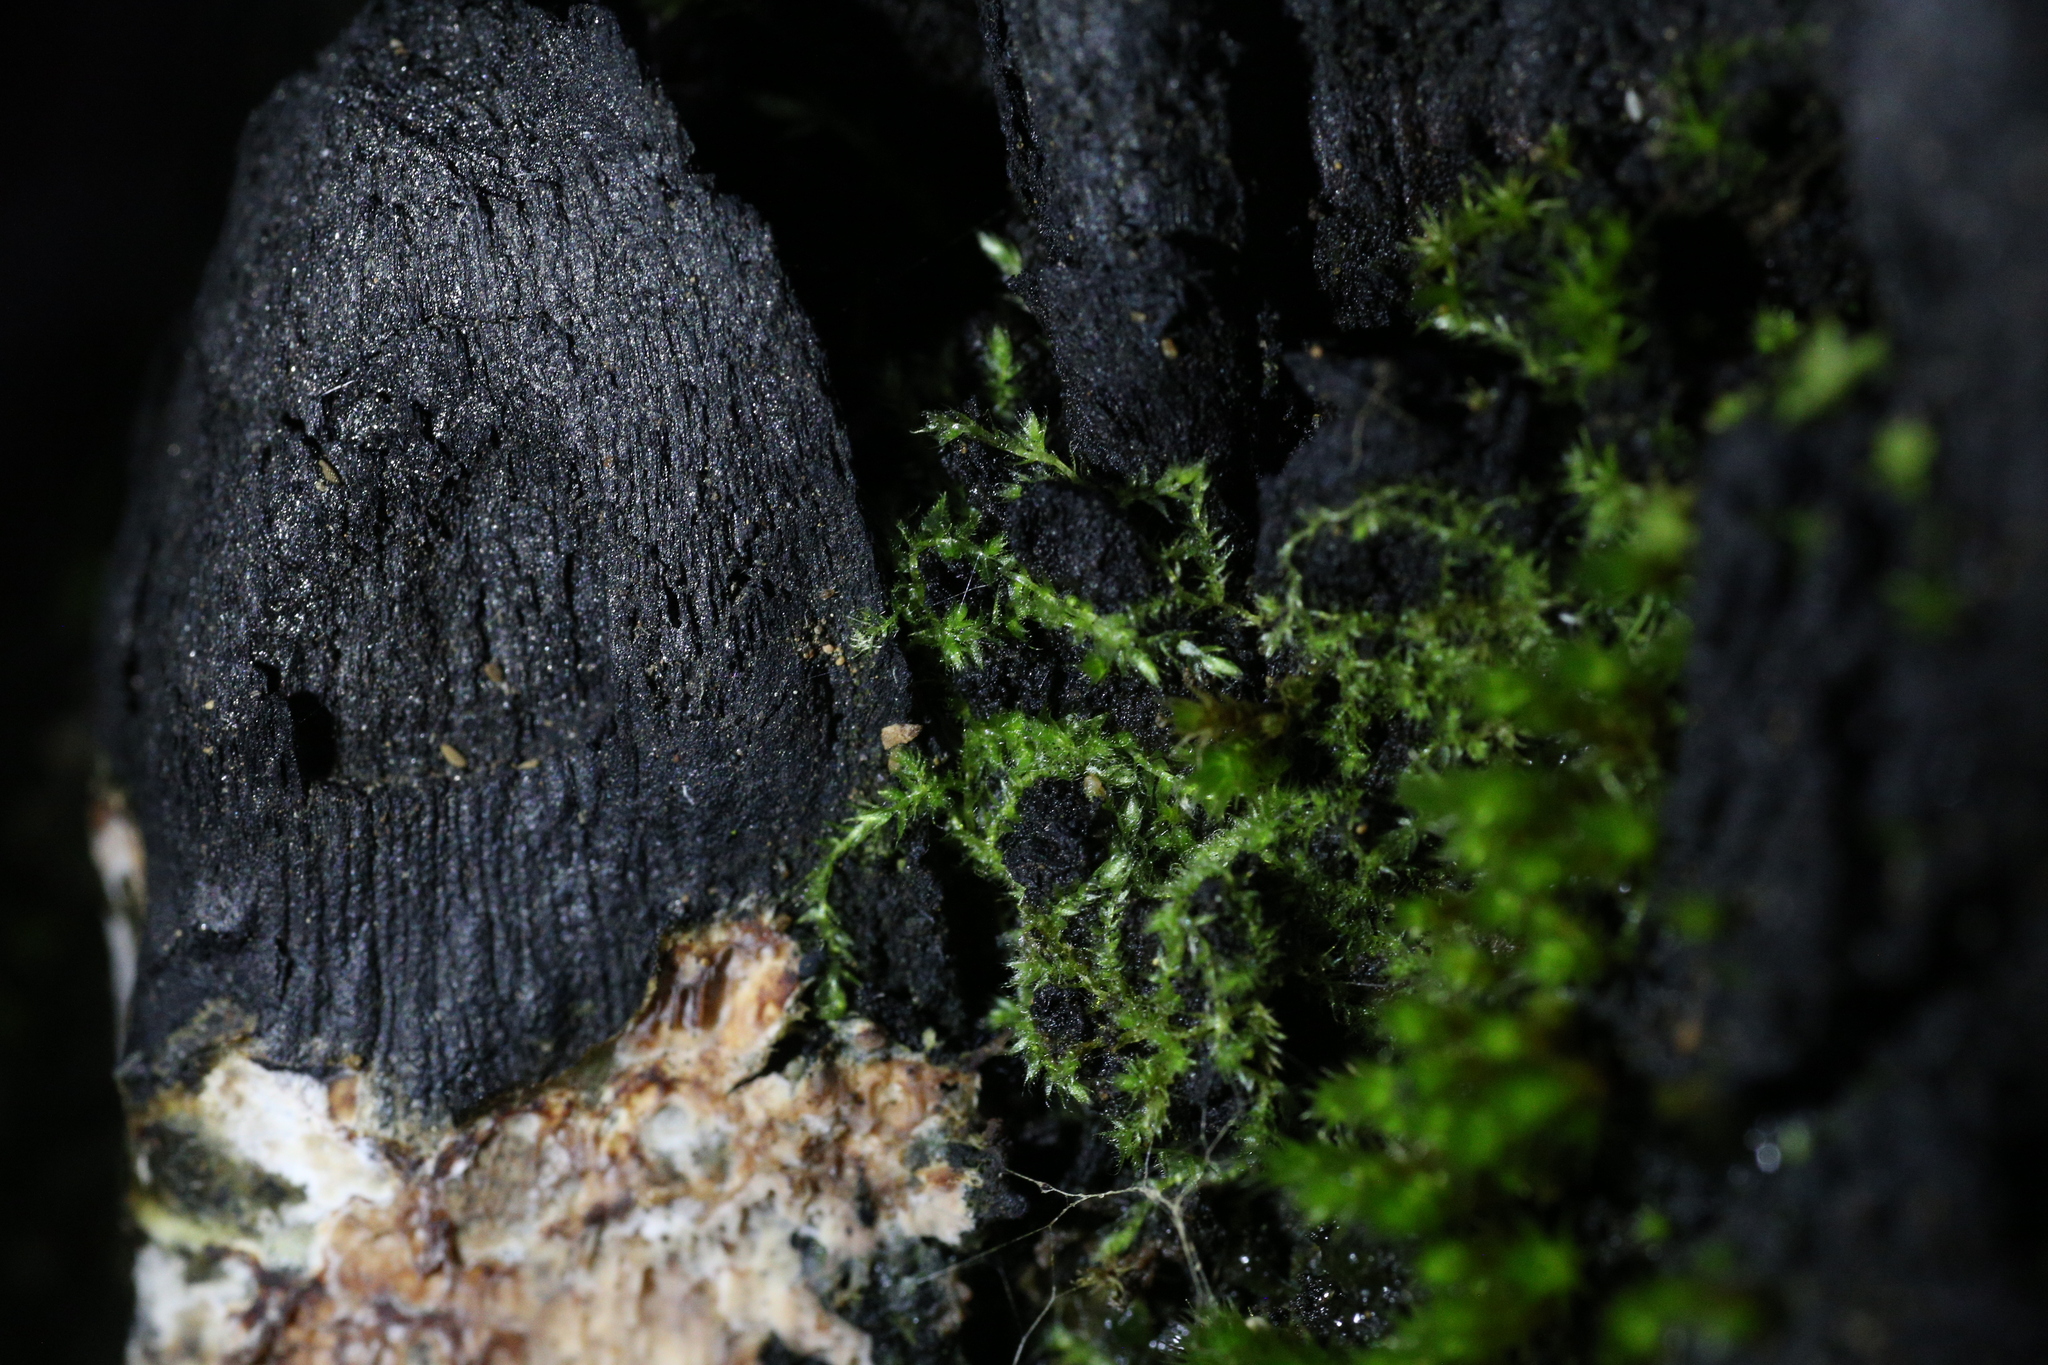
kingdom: Plantae
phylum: Bryophyta
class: Bryopsida
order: Hypnales
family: Fabroniaceae
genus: Fabronia
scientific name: Fabronia hampeana
